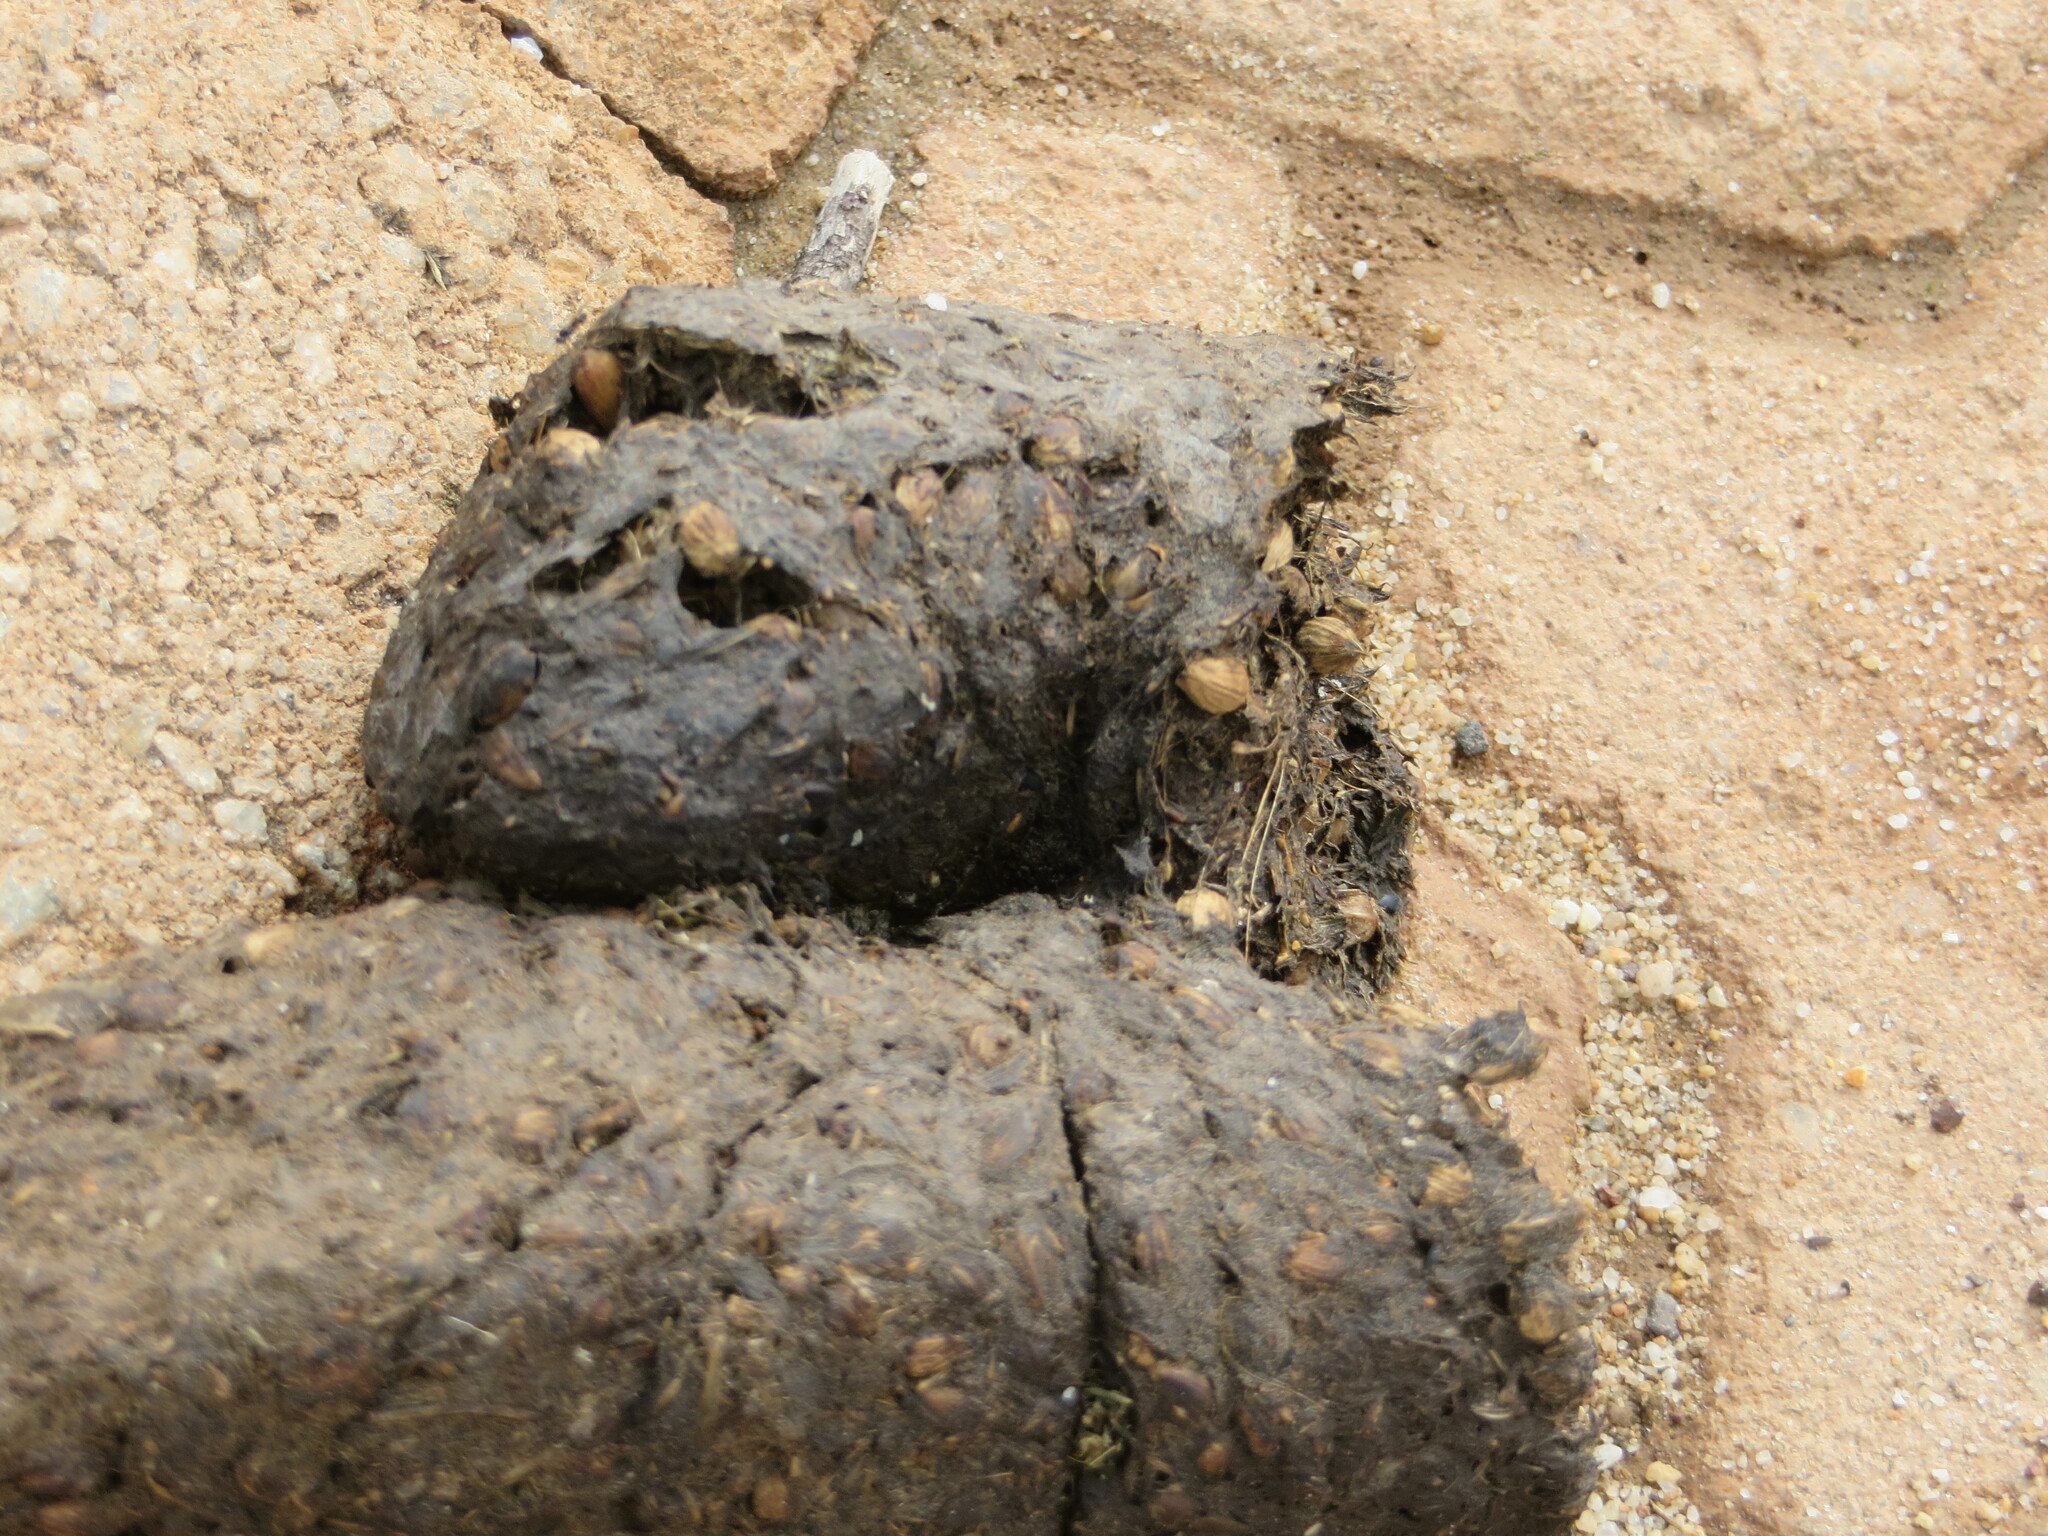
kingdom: Animalia
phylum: Chordata
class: Mammalia
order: Primates
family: Cercopithecidae
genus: Papio
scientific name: Papio ursinus
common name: Chacma baboon
